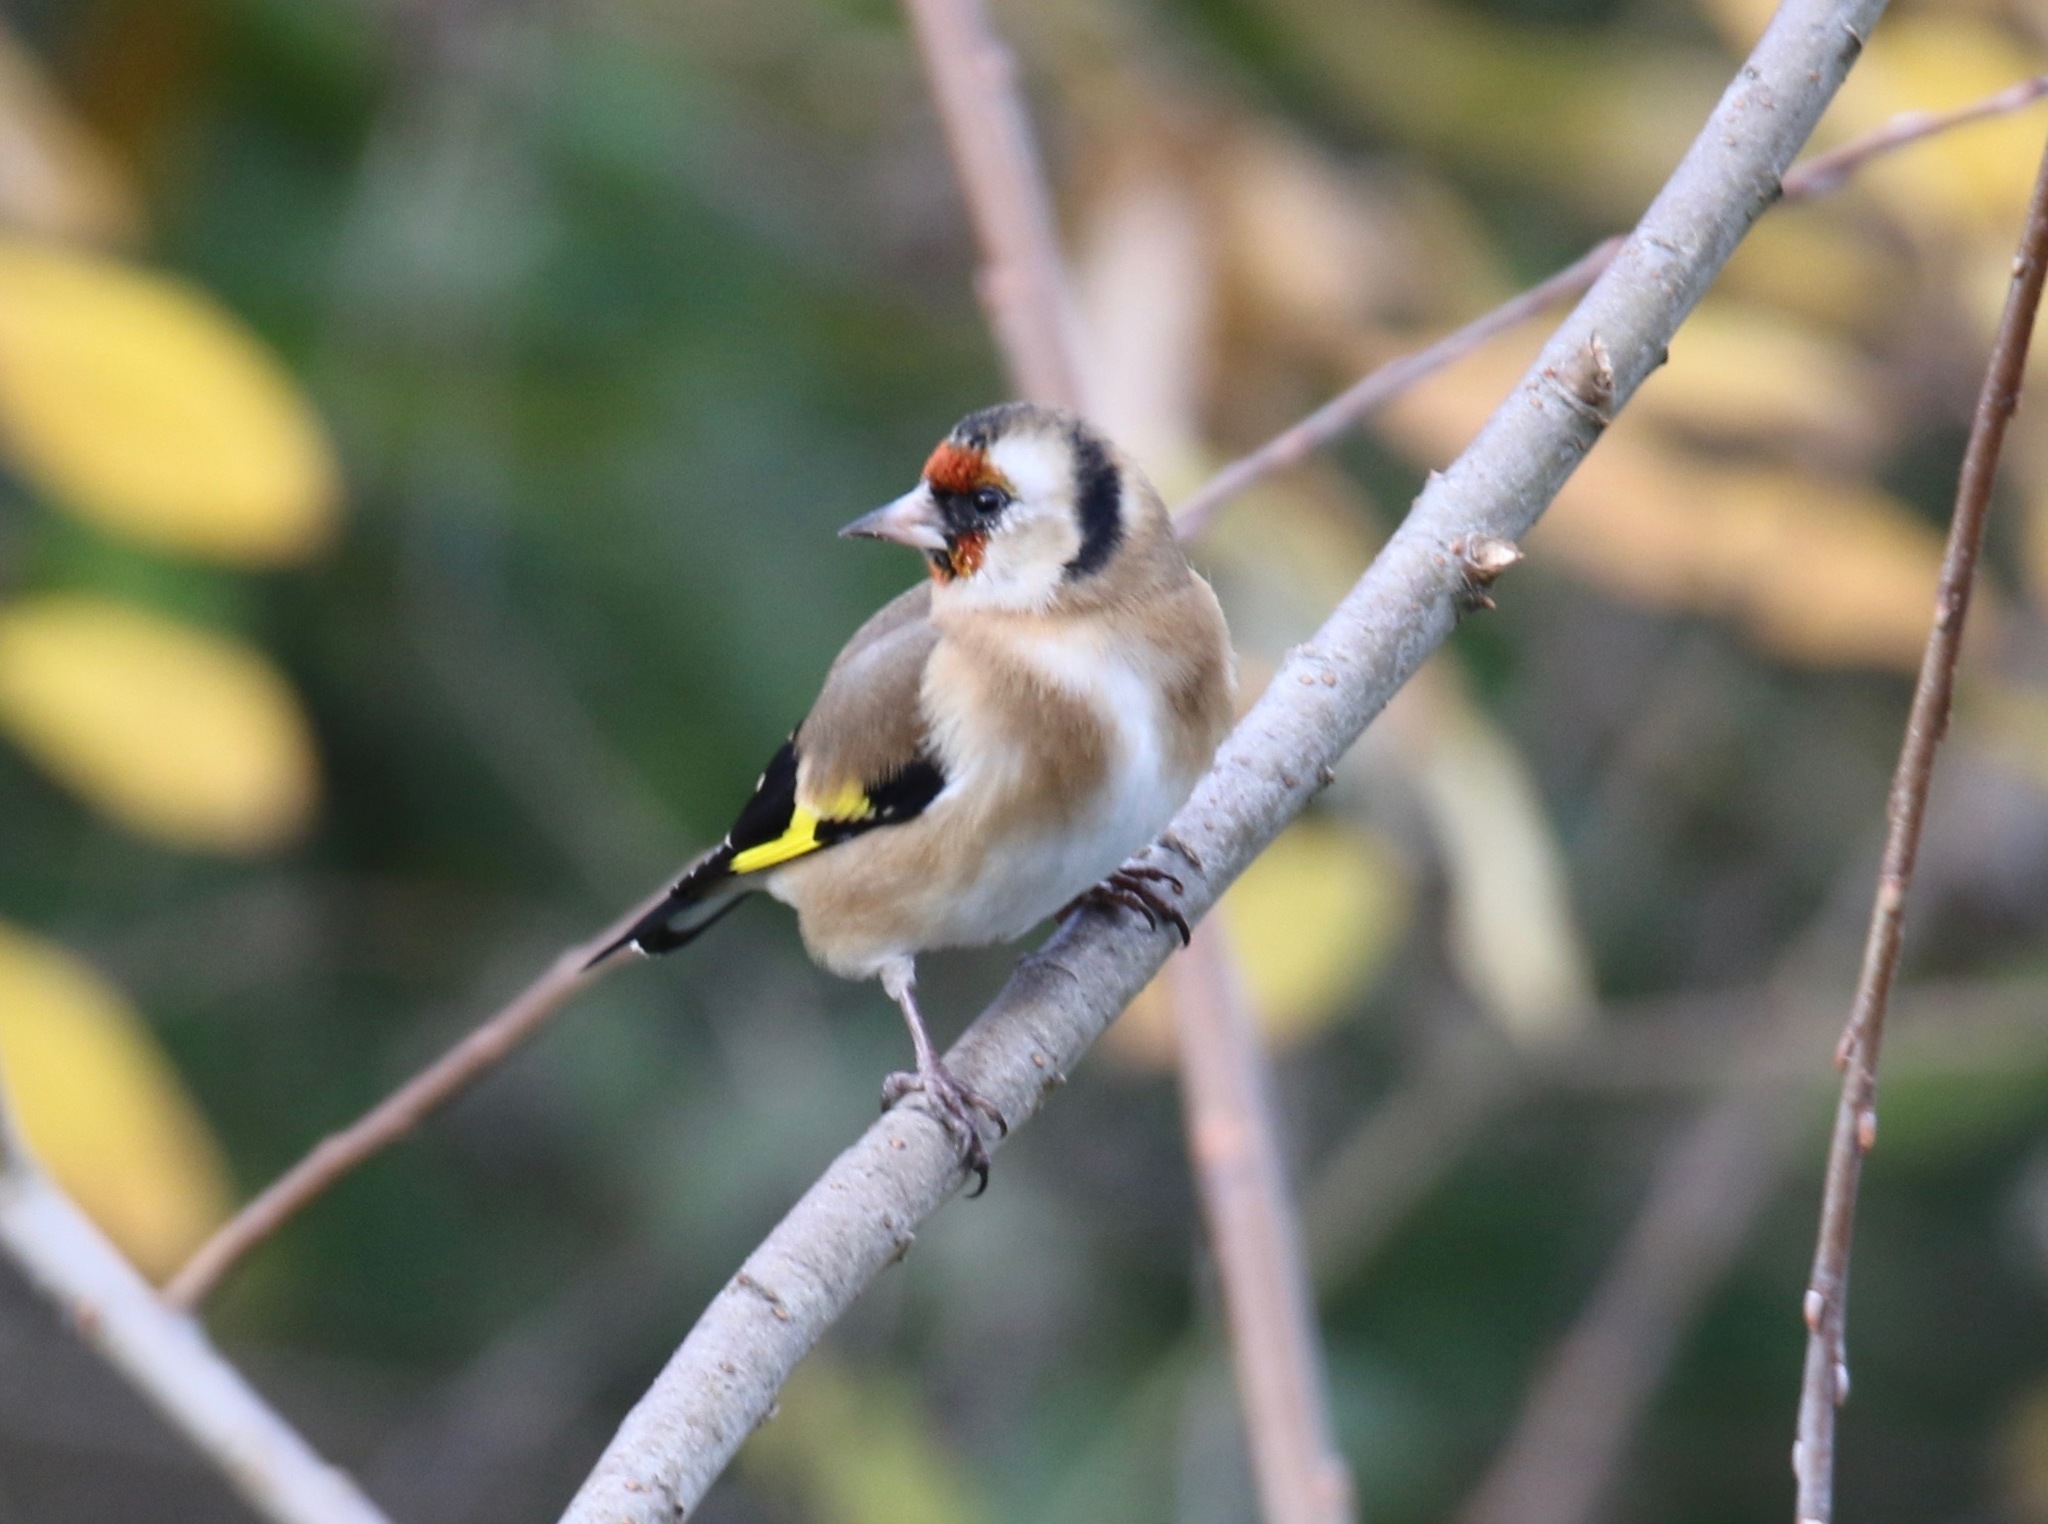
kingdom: Animalia
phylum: Chordata
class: Aves
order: Passeriformes
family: Fringillidae
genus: Carduelis
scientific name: Carduelis carduelis
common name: European goldfinch
